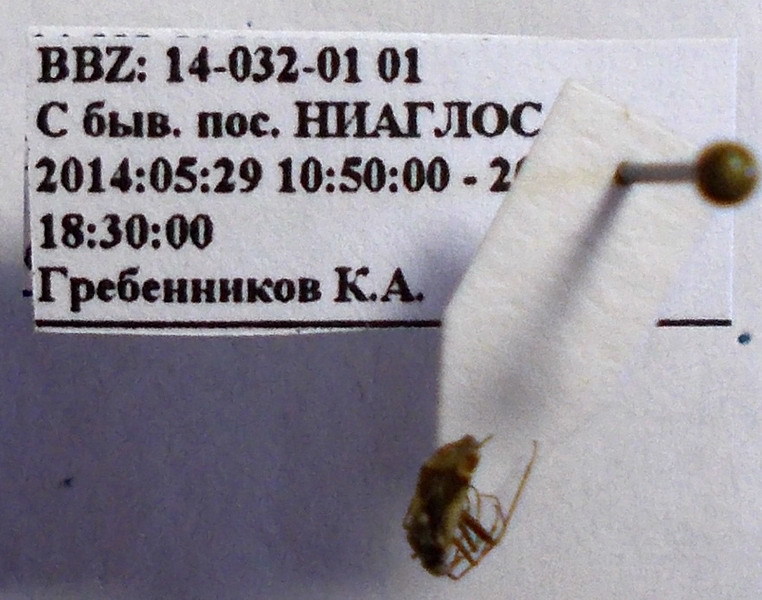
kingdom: Animalia
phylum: Arthropoda
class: Insecta
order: Hemiptera
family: Miridae
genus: Polymerus
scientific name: Polymerus cognatus
